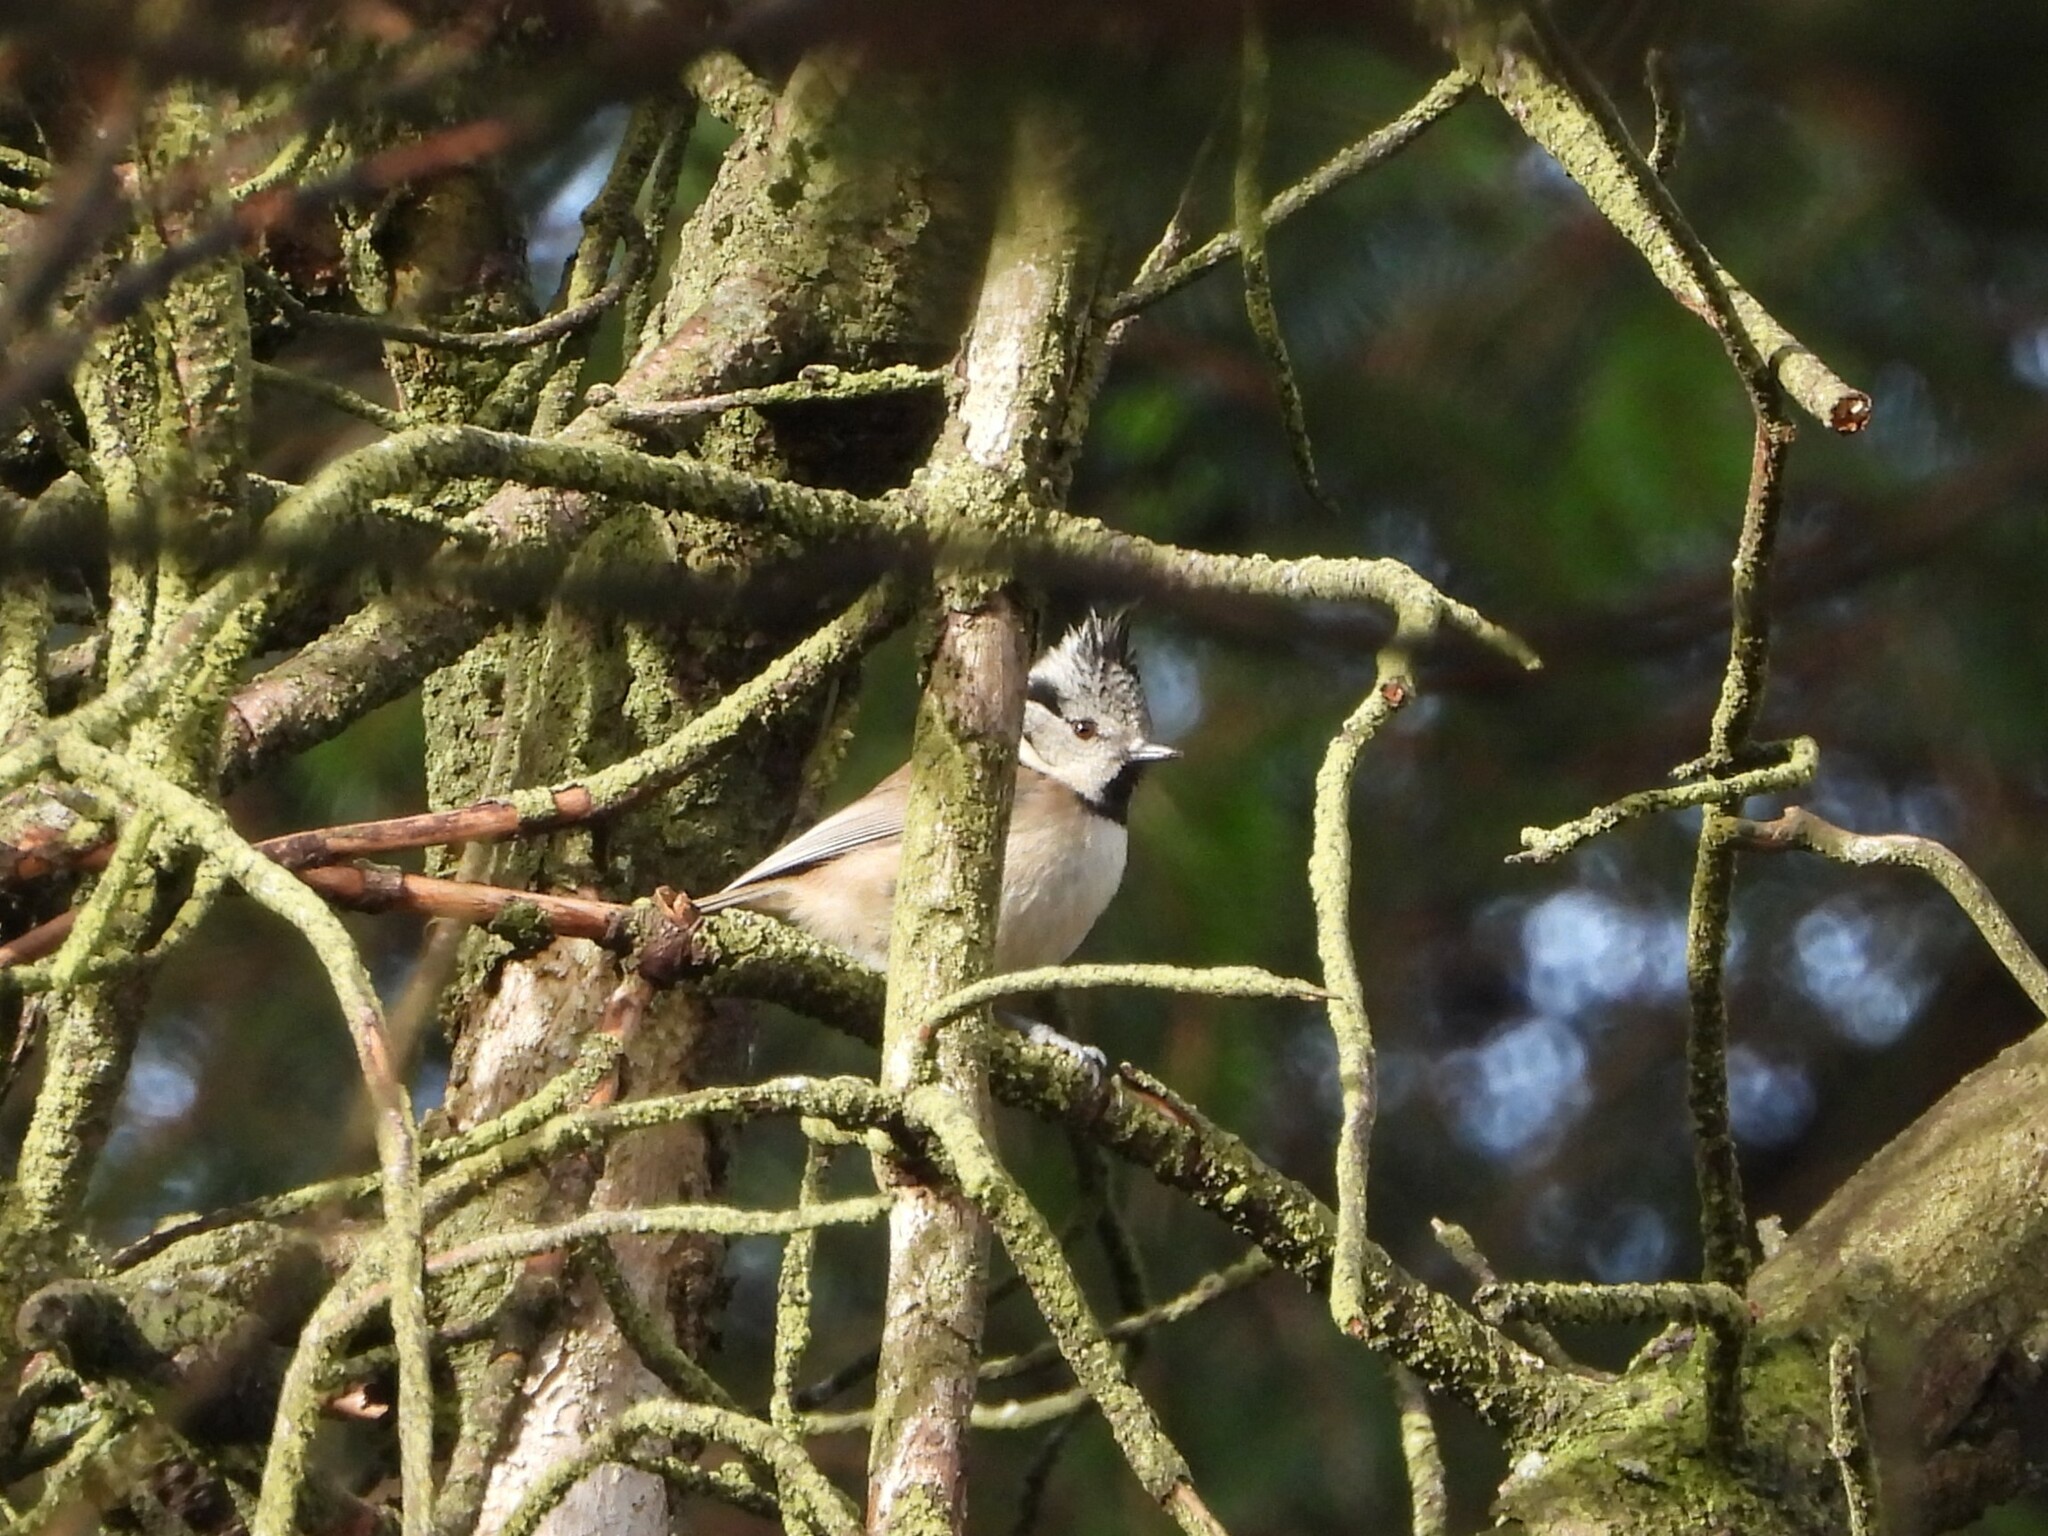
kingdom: Animalia
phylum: Chordata
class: Aves
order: Passeriformes
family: Paridae
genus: Lophophanes
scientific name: Lophophanes cristatus
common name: European crested tit
